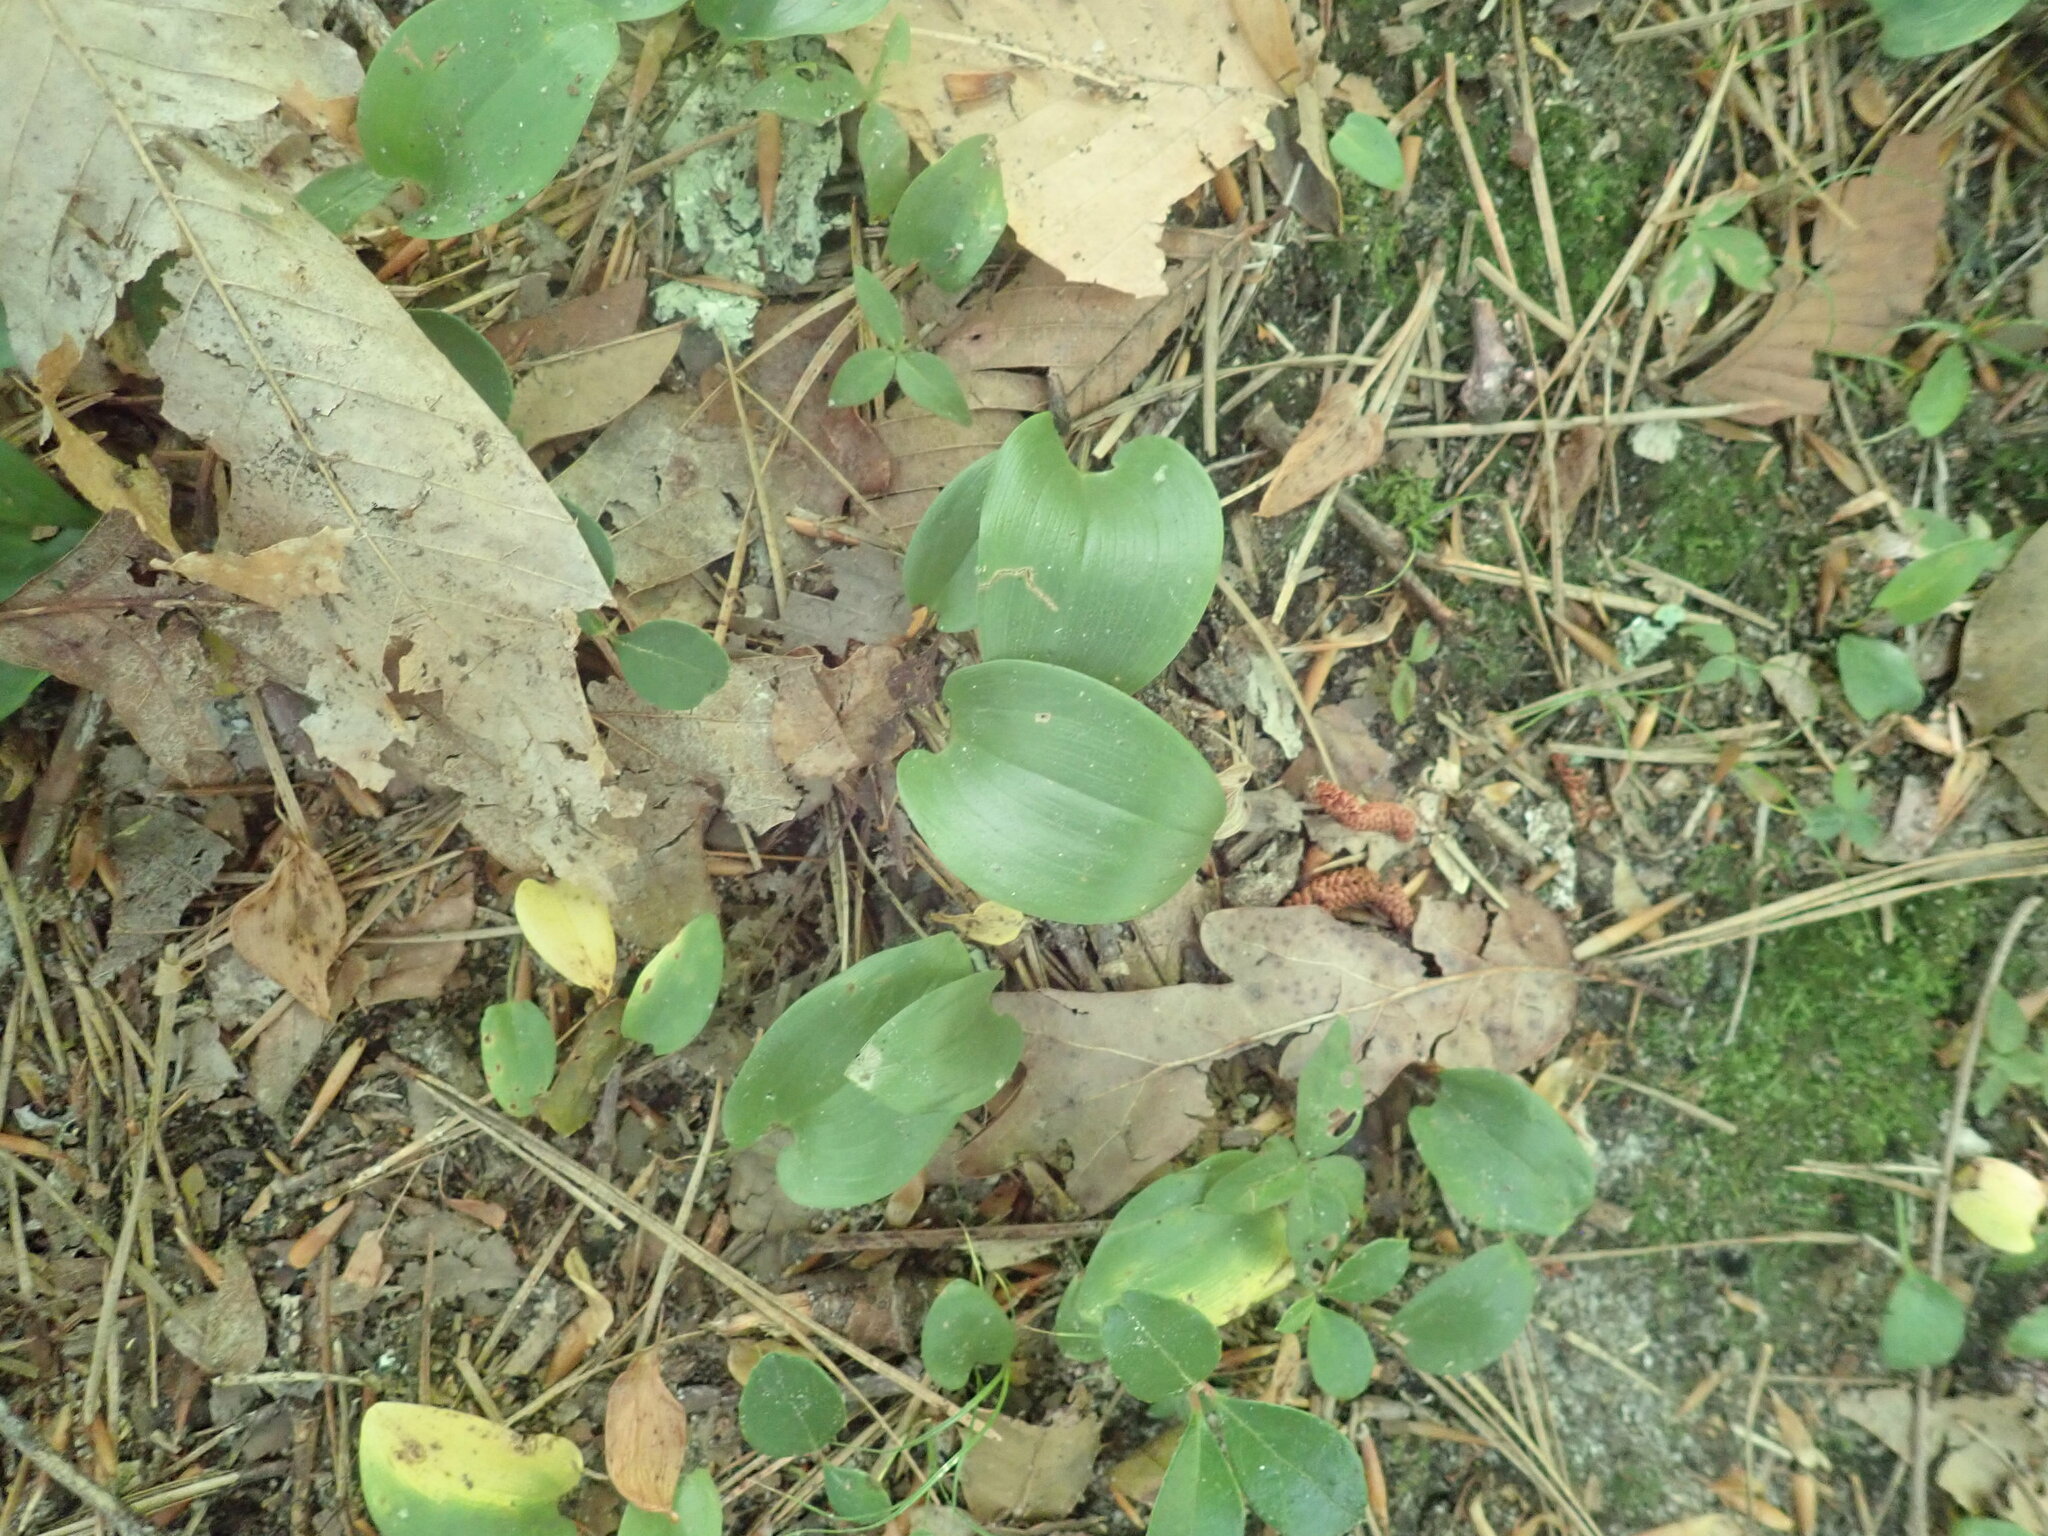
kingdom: Plantae
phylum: Tracheophyta
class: Liliopsida
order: Asparagales
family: Asparagaceae
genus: Maianthemum
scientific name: Maianthemum canadense
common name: False lily-of-the-valley
